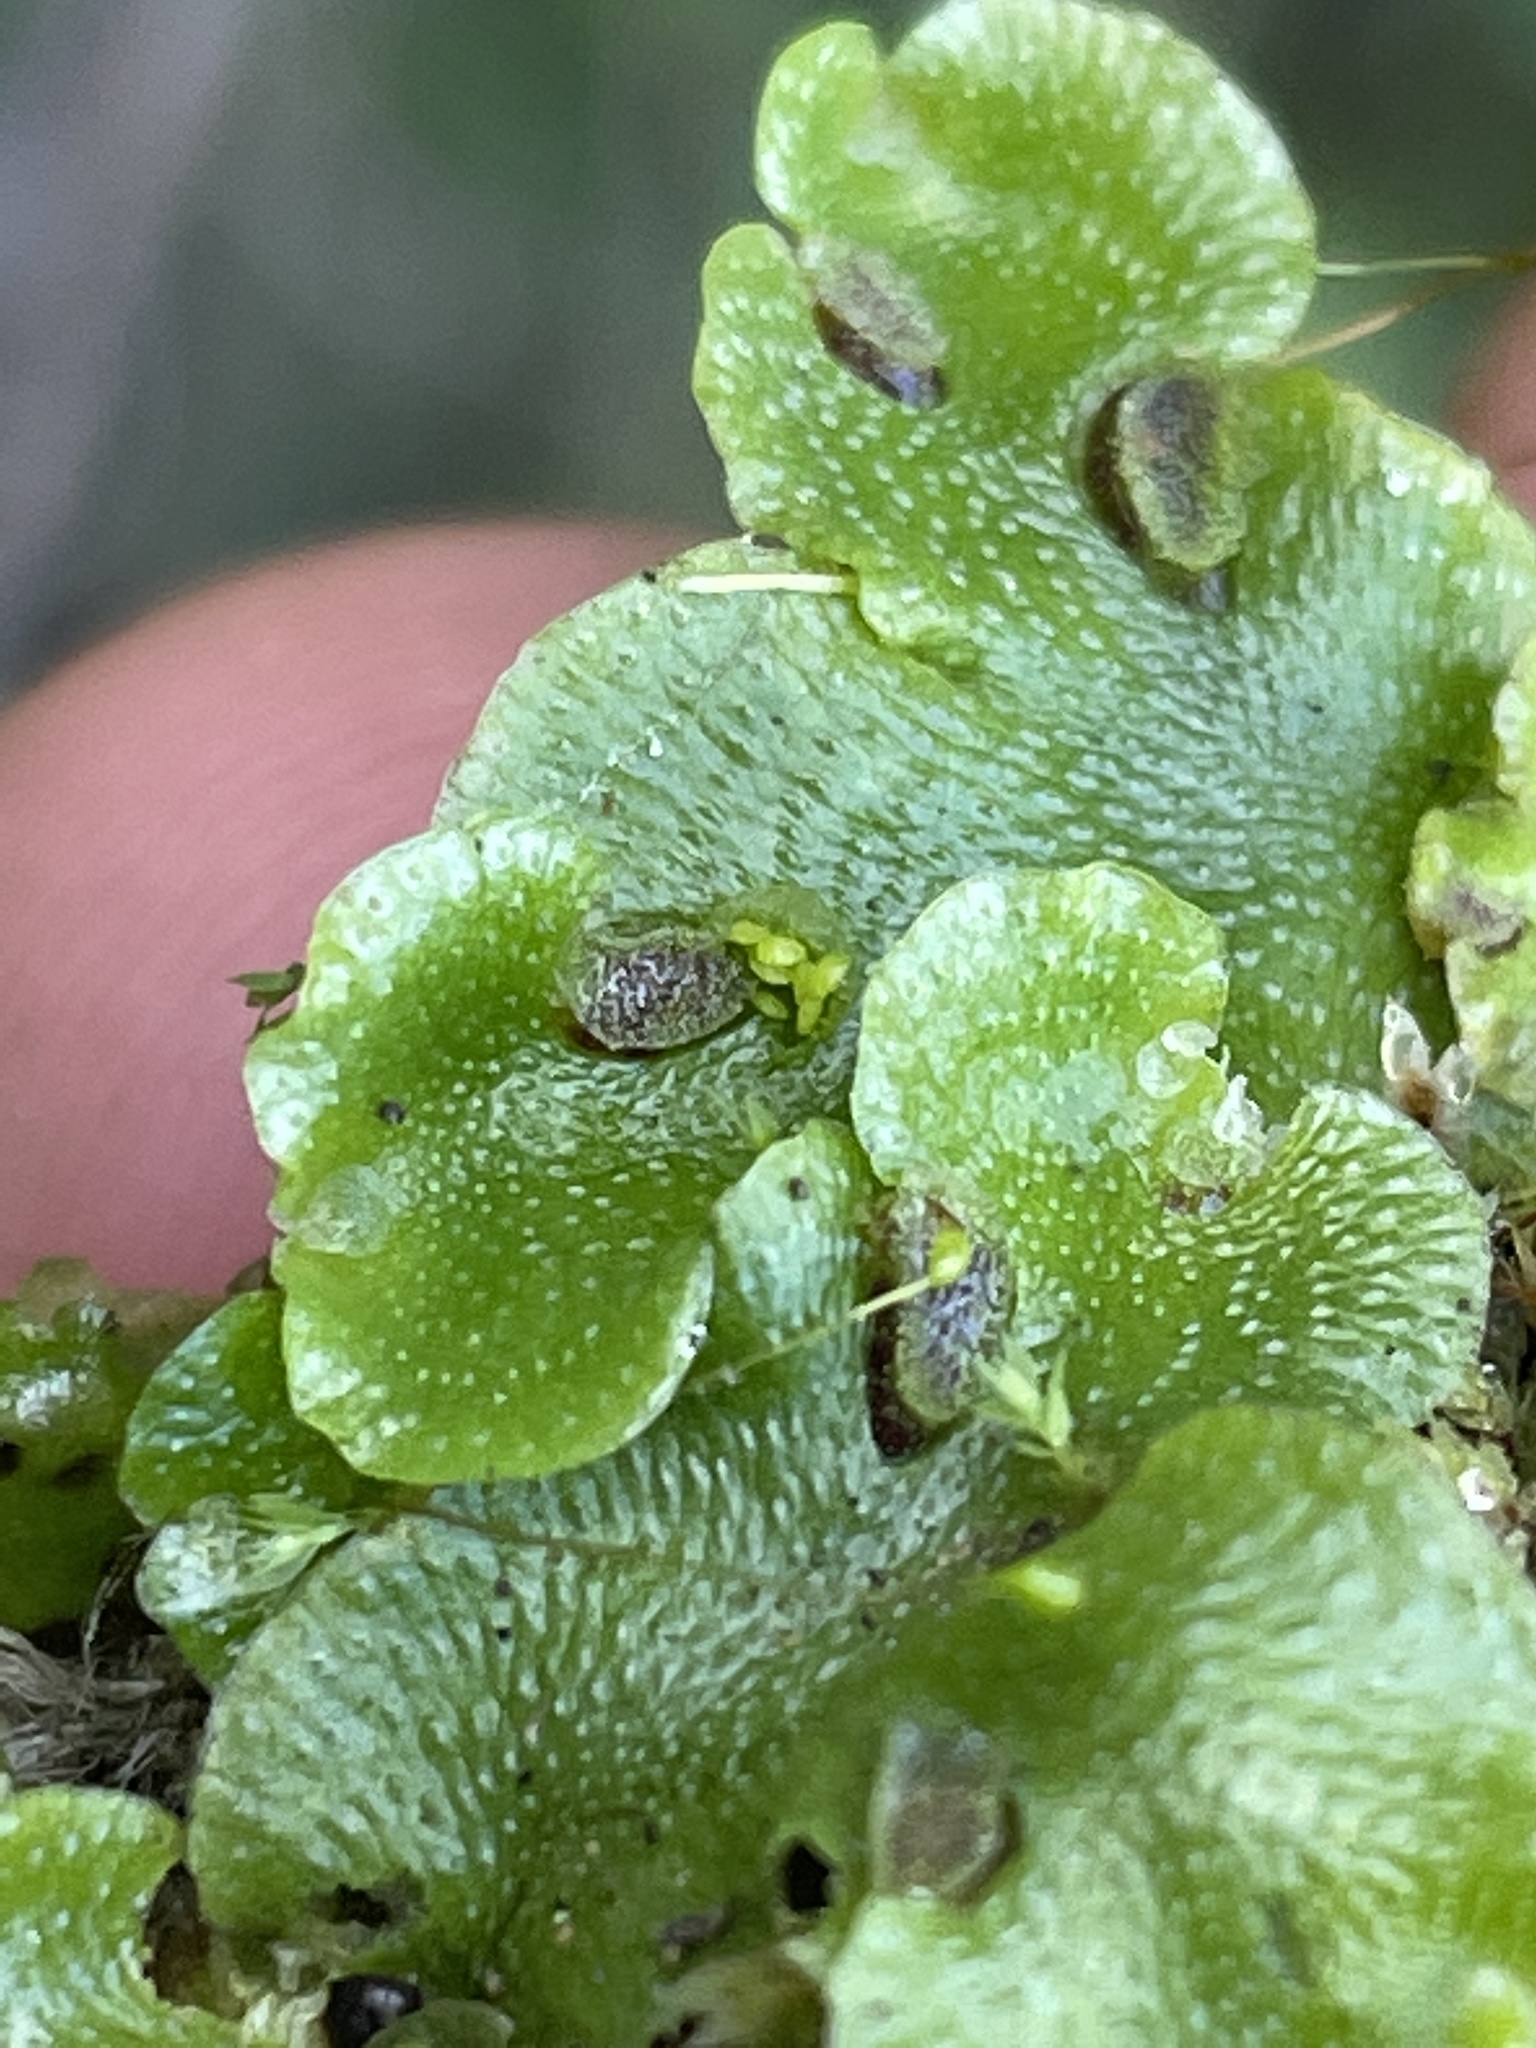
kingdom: Plantae
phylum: Marchantiophyta
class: Marchantiopsida
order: Lunulariales
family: Lunulariaceae
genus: Lunularia
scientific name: Lunularia cruciata
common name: Crescent-cup liverwort
